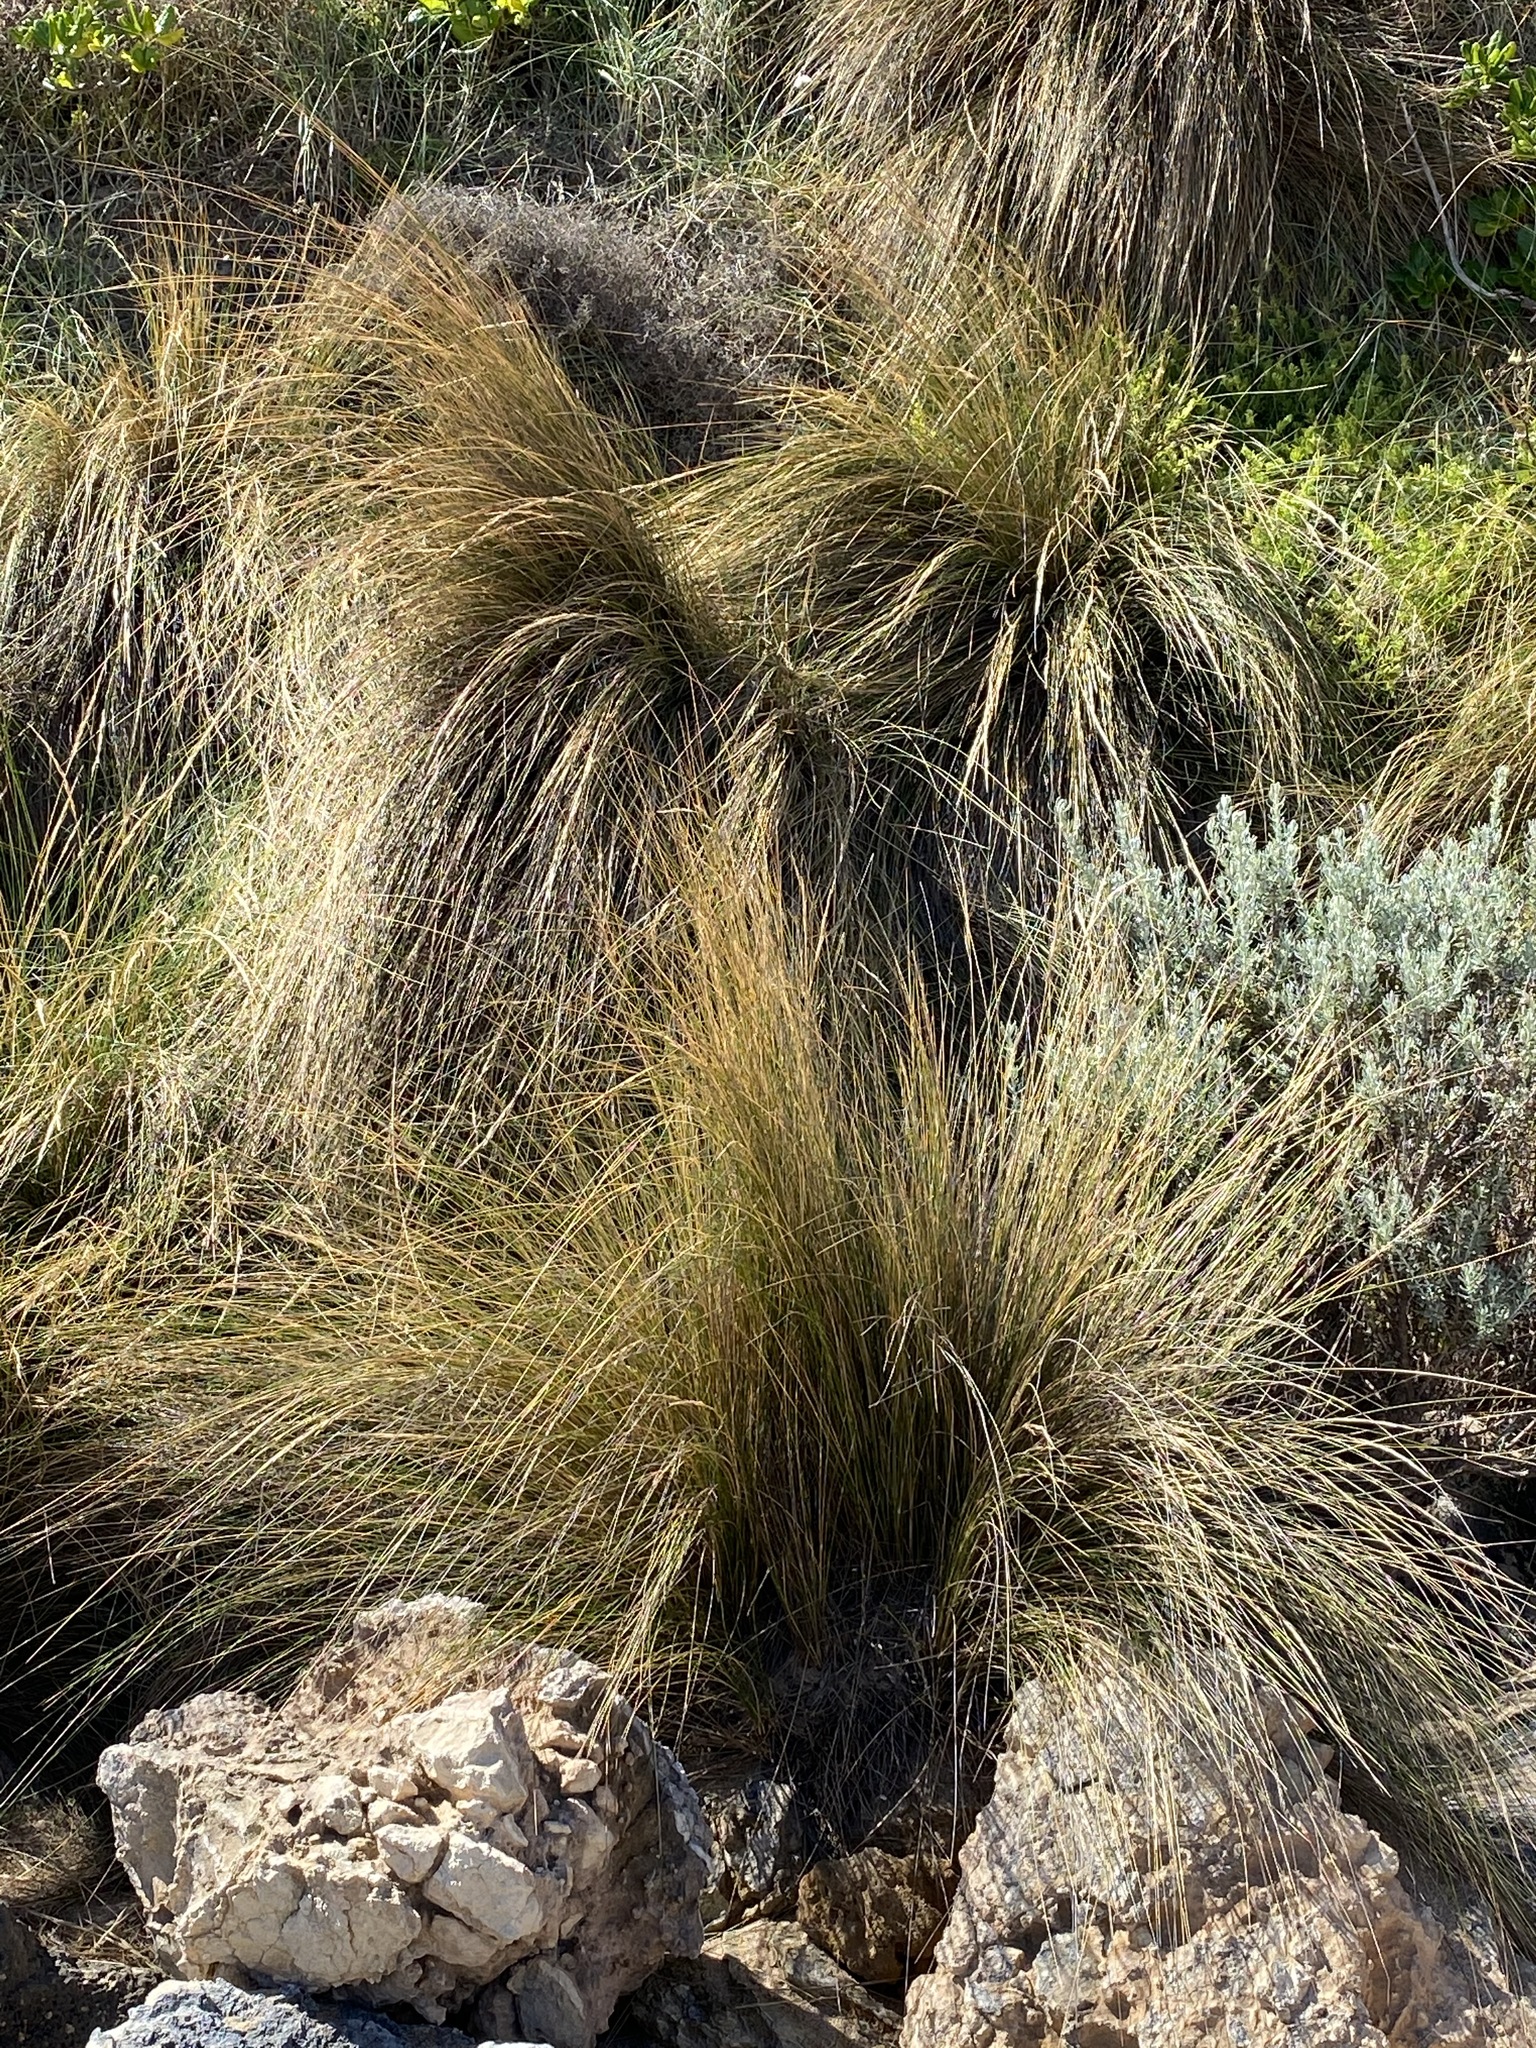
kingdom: Plantae
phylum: Tracheophyta
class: Liliopsida
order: Poales
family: Poaceae
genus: Austrostipa
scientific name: Austrostipa stipoides
